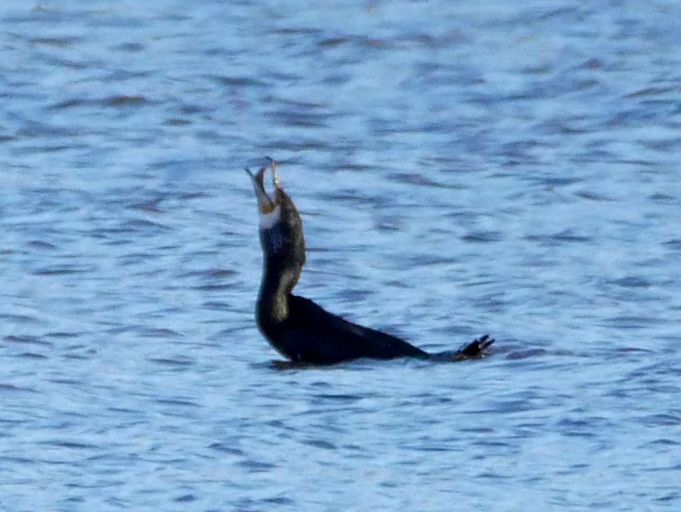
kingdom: Animalia
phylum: Chordata
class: Aves
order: Suliformes
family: Phalacrocoracidae
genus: Phalacrocorax
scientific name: Phalacrocorax carbo
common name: Great cormorant
